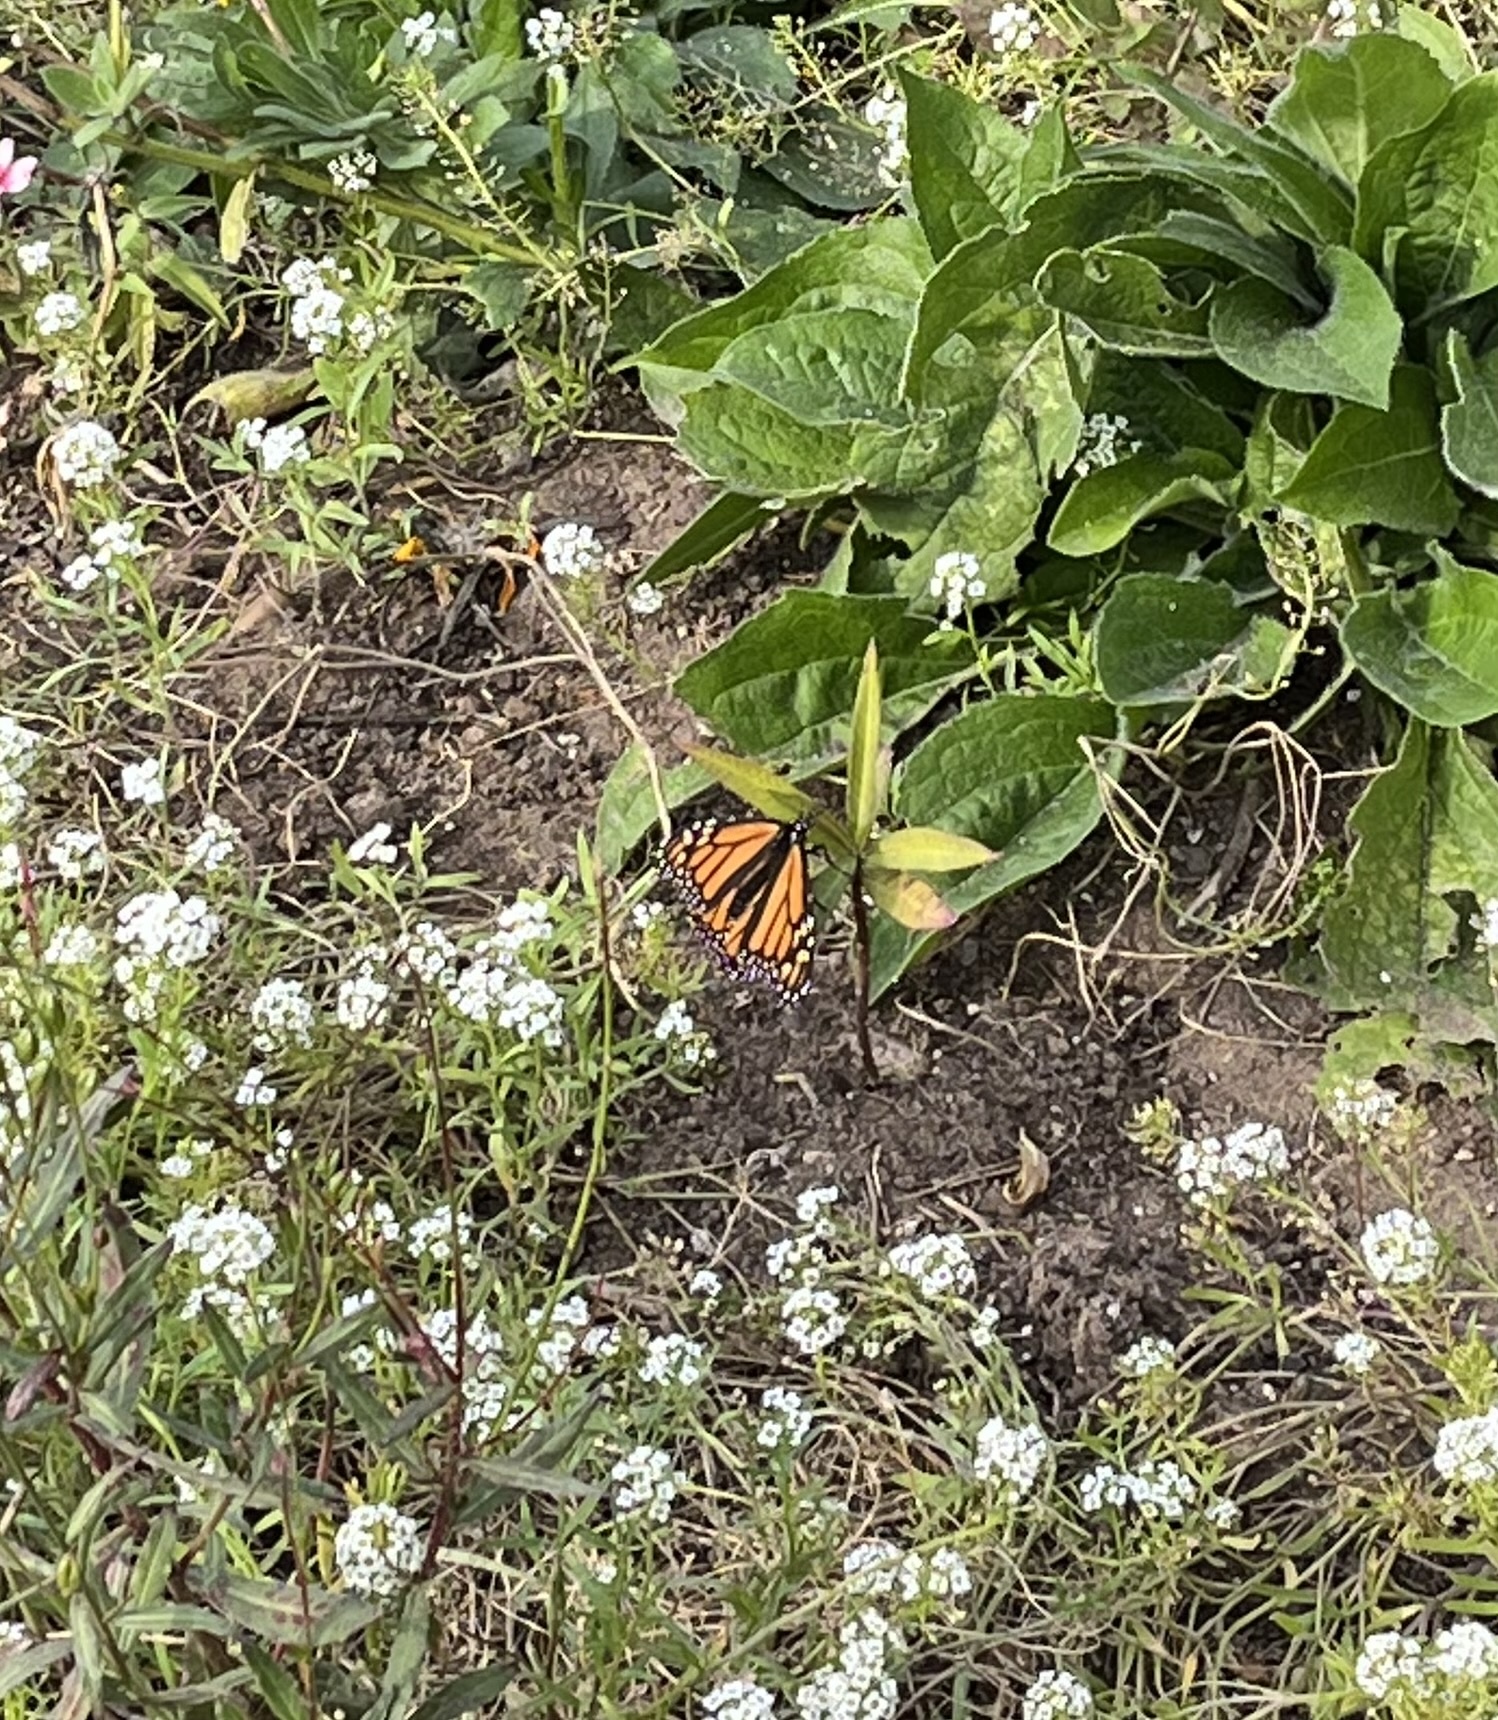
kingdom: Animalia
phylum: Arthropoda
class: Insecta
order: Lepidoptera
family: Nymphalidae
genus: Danaus
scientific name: Danaus plexippus
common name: Monarch
